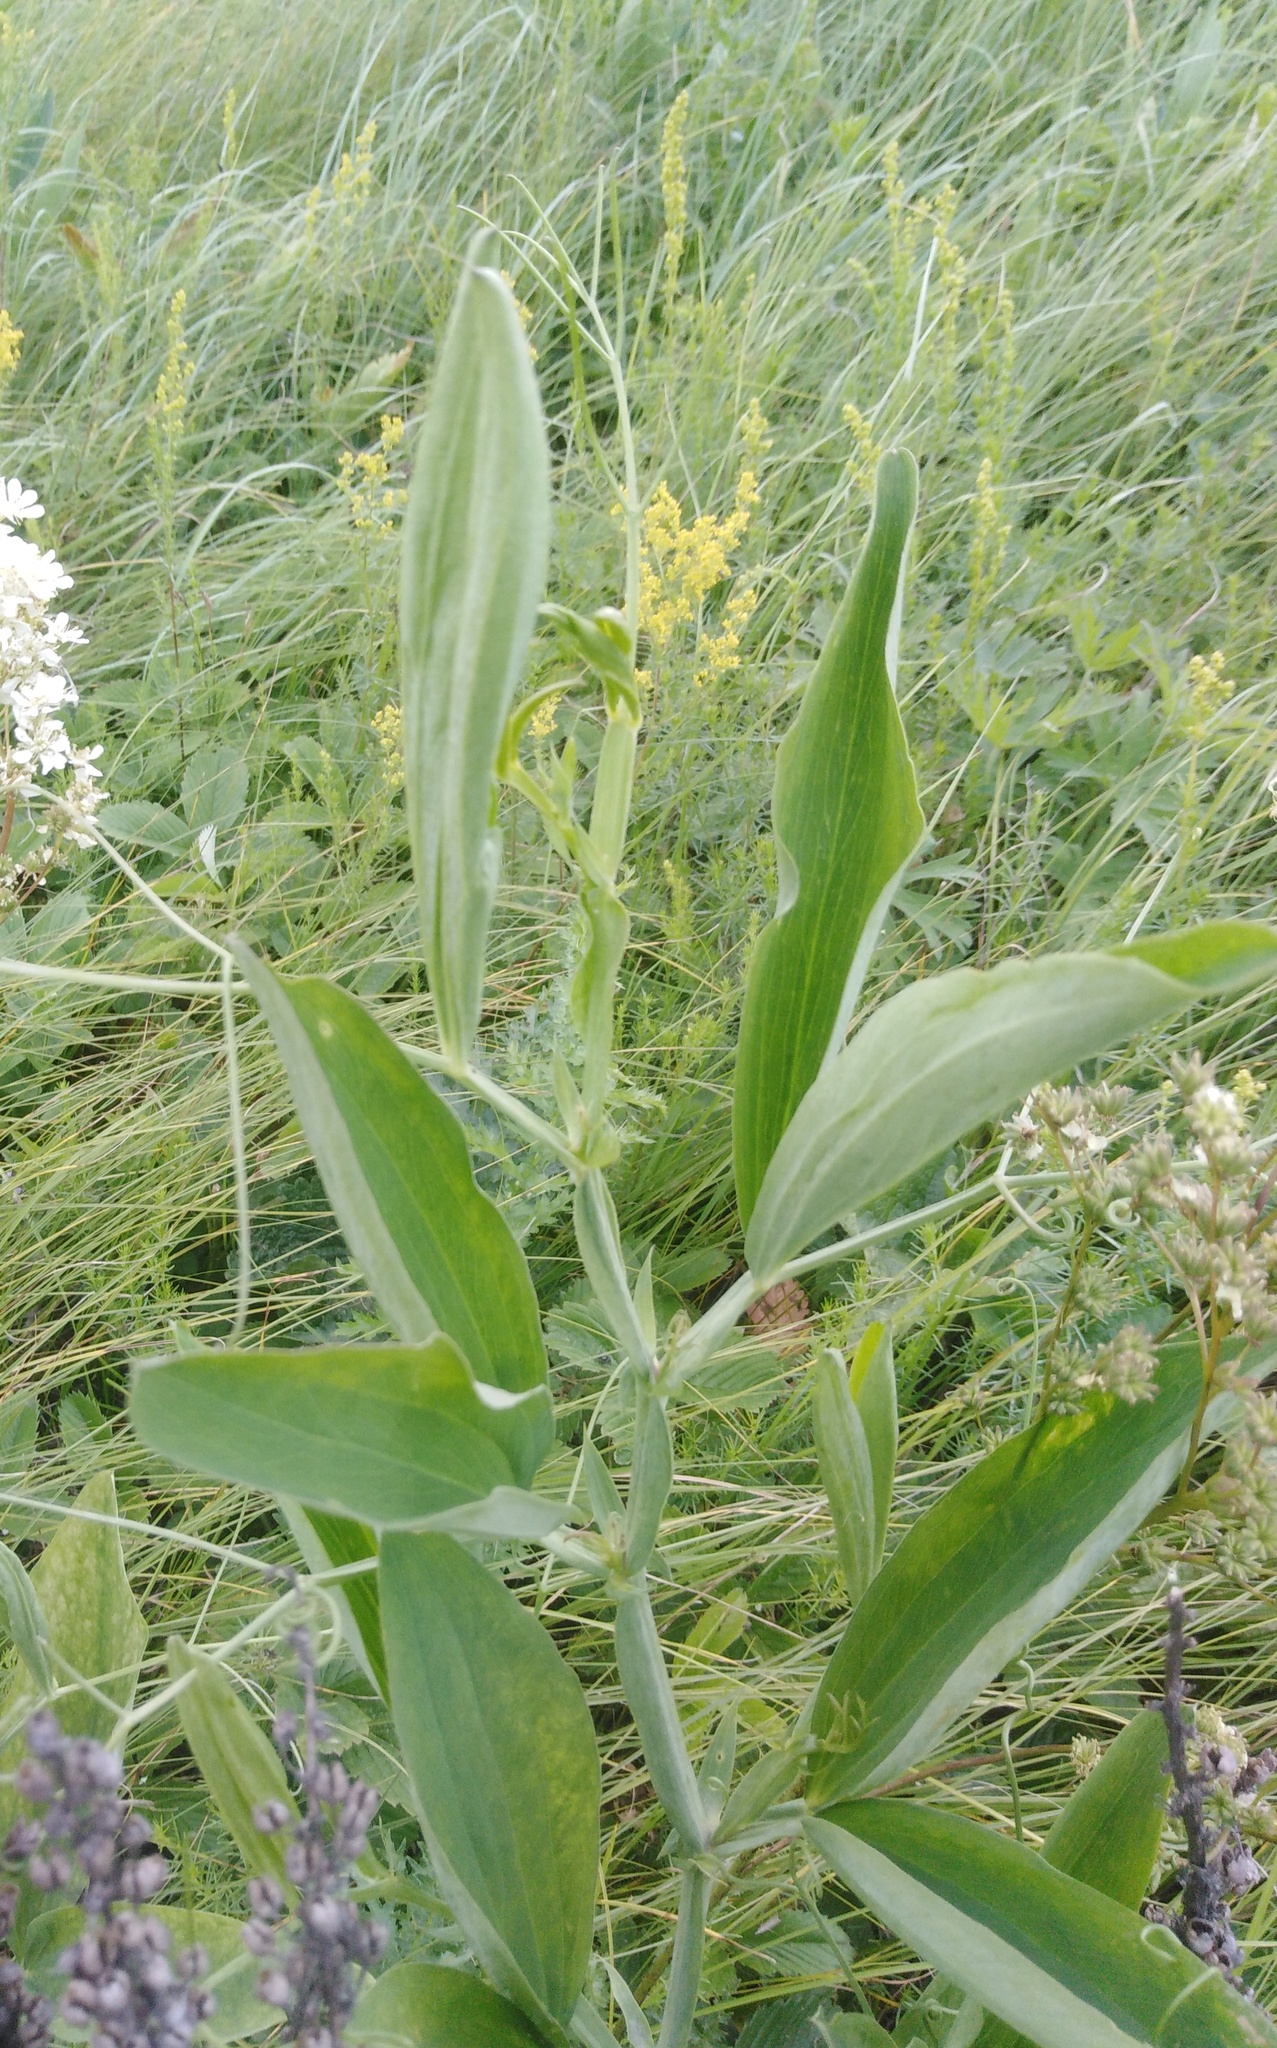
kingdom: Plantae
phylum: Tracheophyta
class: Magnoliopsida
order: Fabales
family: Fabaceae
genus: Lathyrus
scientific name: Lathyrus sylvestris
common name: Flat pea
